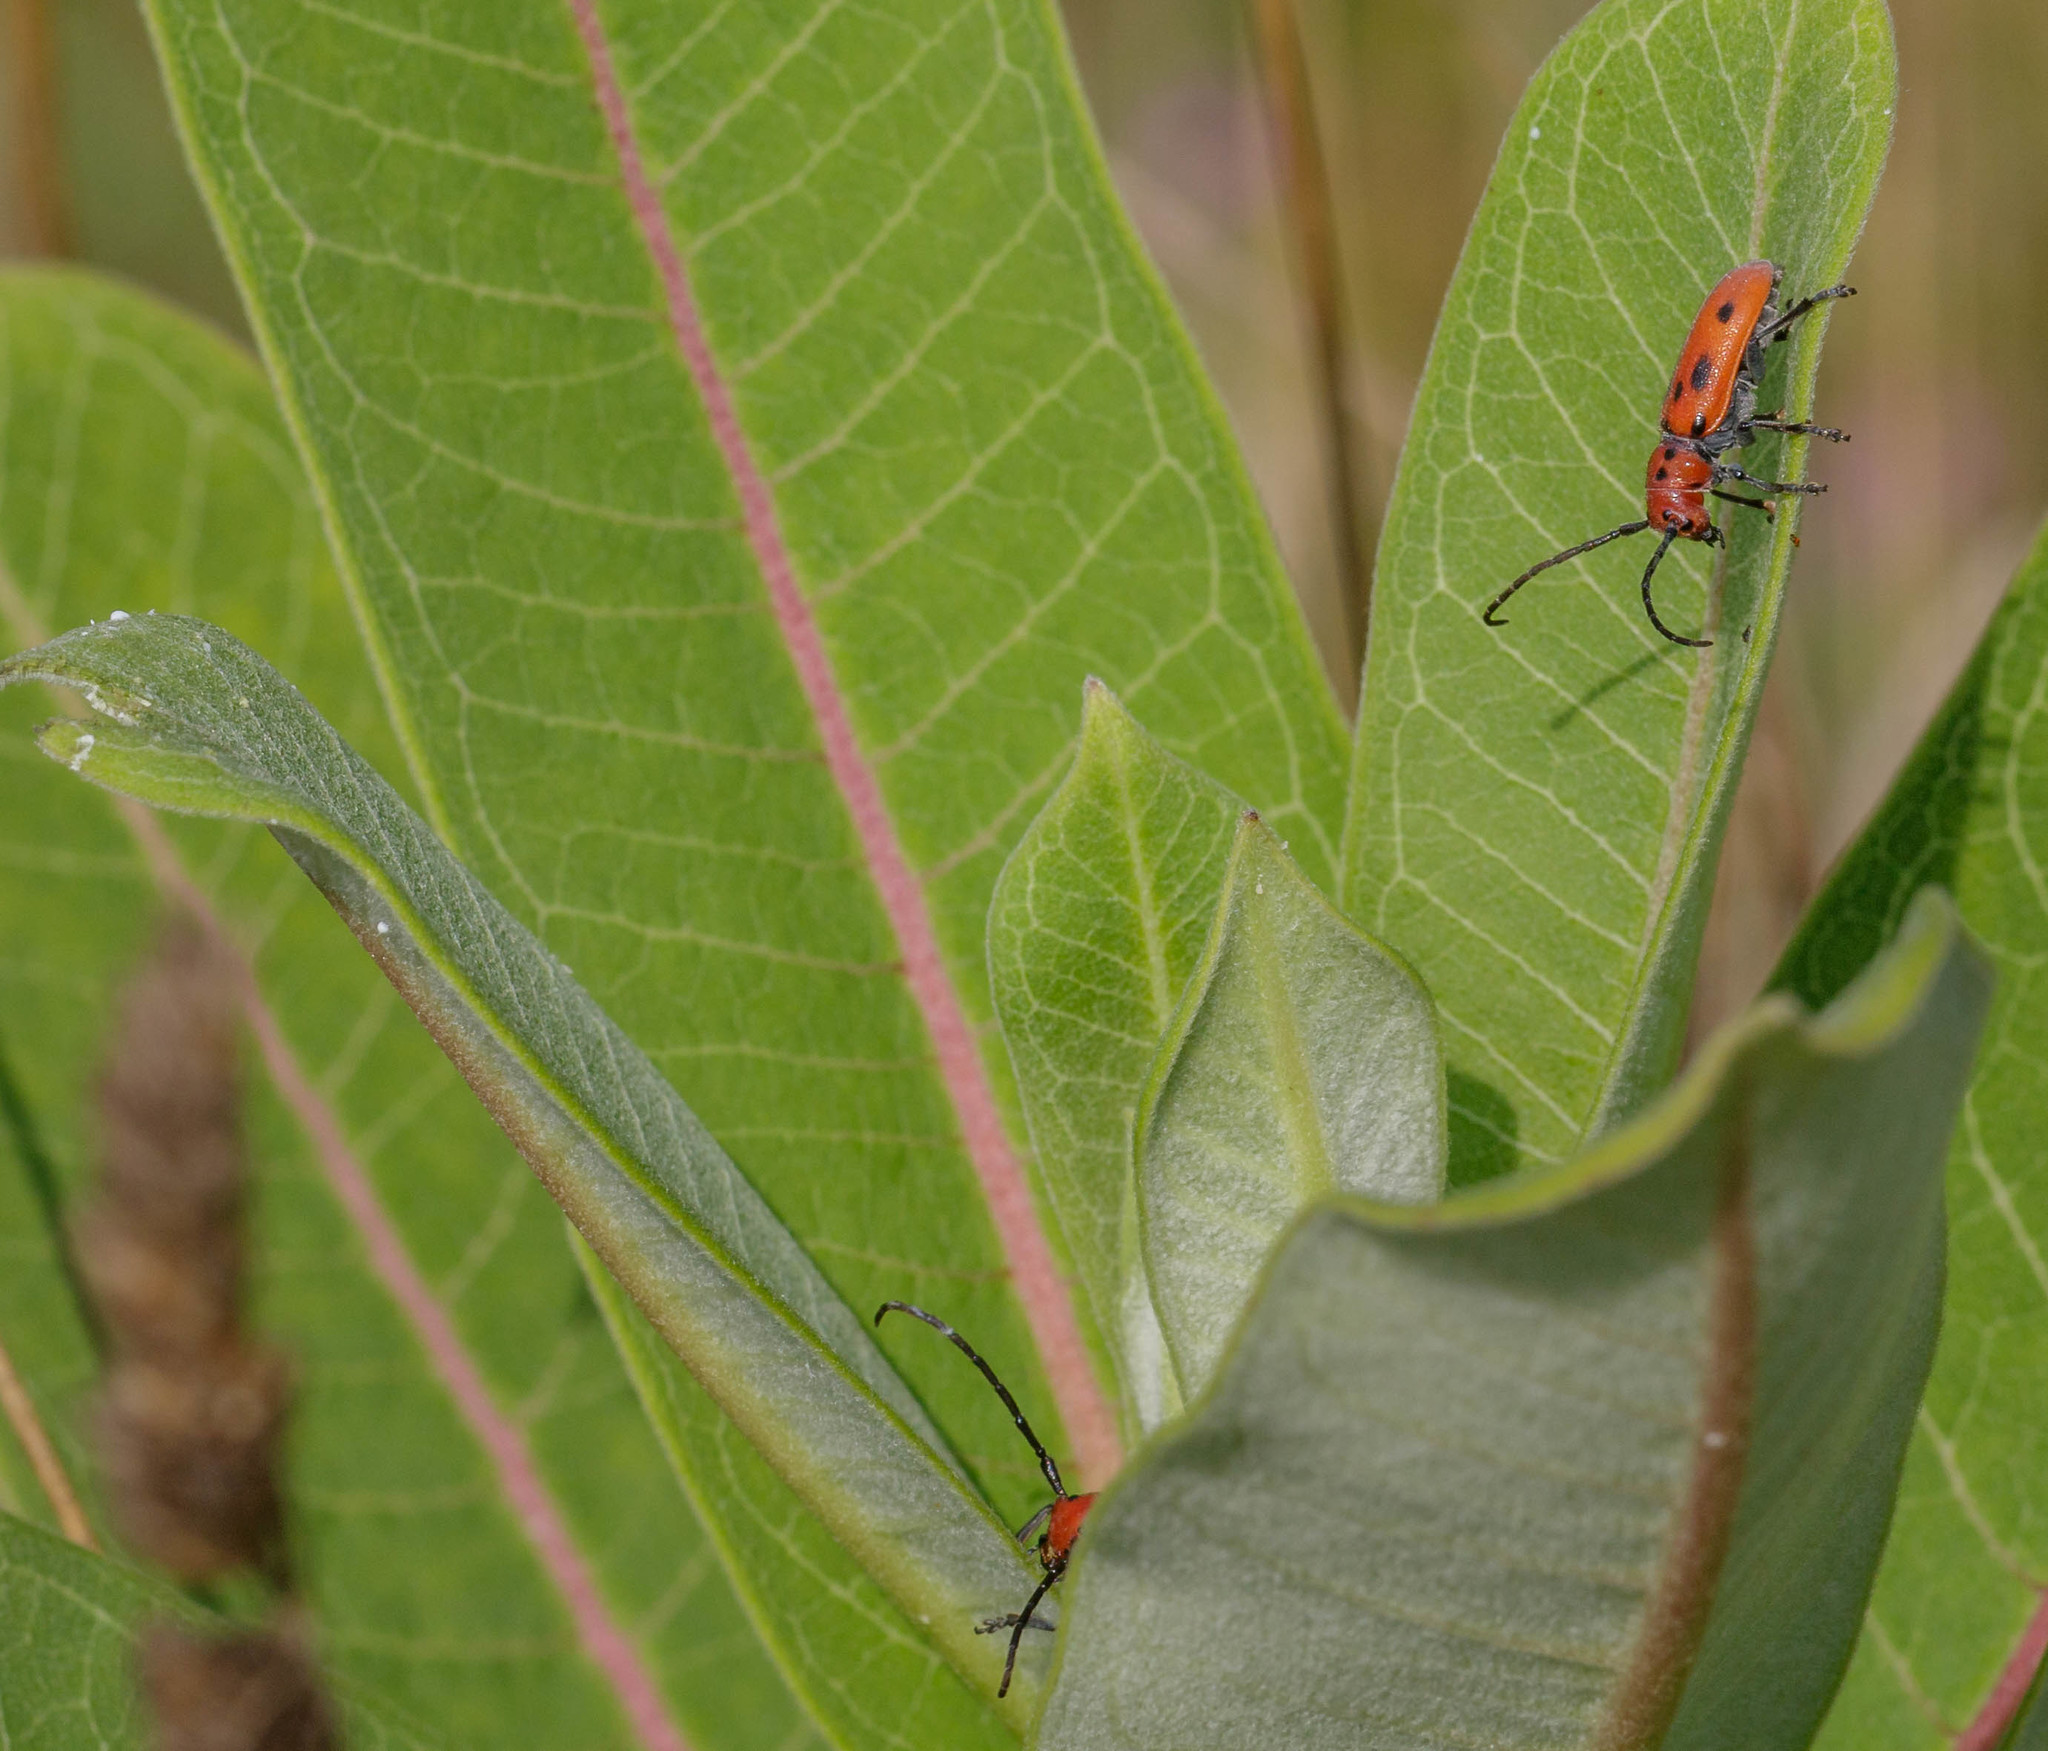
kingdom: Animalia
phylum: Arthropoda
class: Insecta
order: Coleoptera
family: Cerambycidae
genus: Tetraopes
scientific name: Tetraopes tetrophthalmus
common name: Red milkweed beetle
